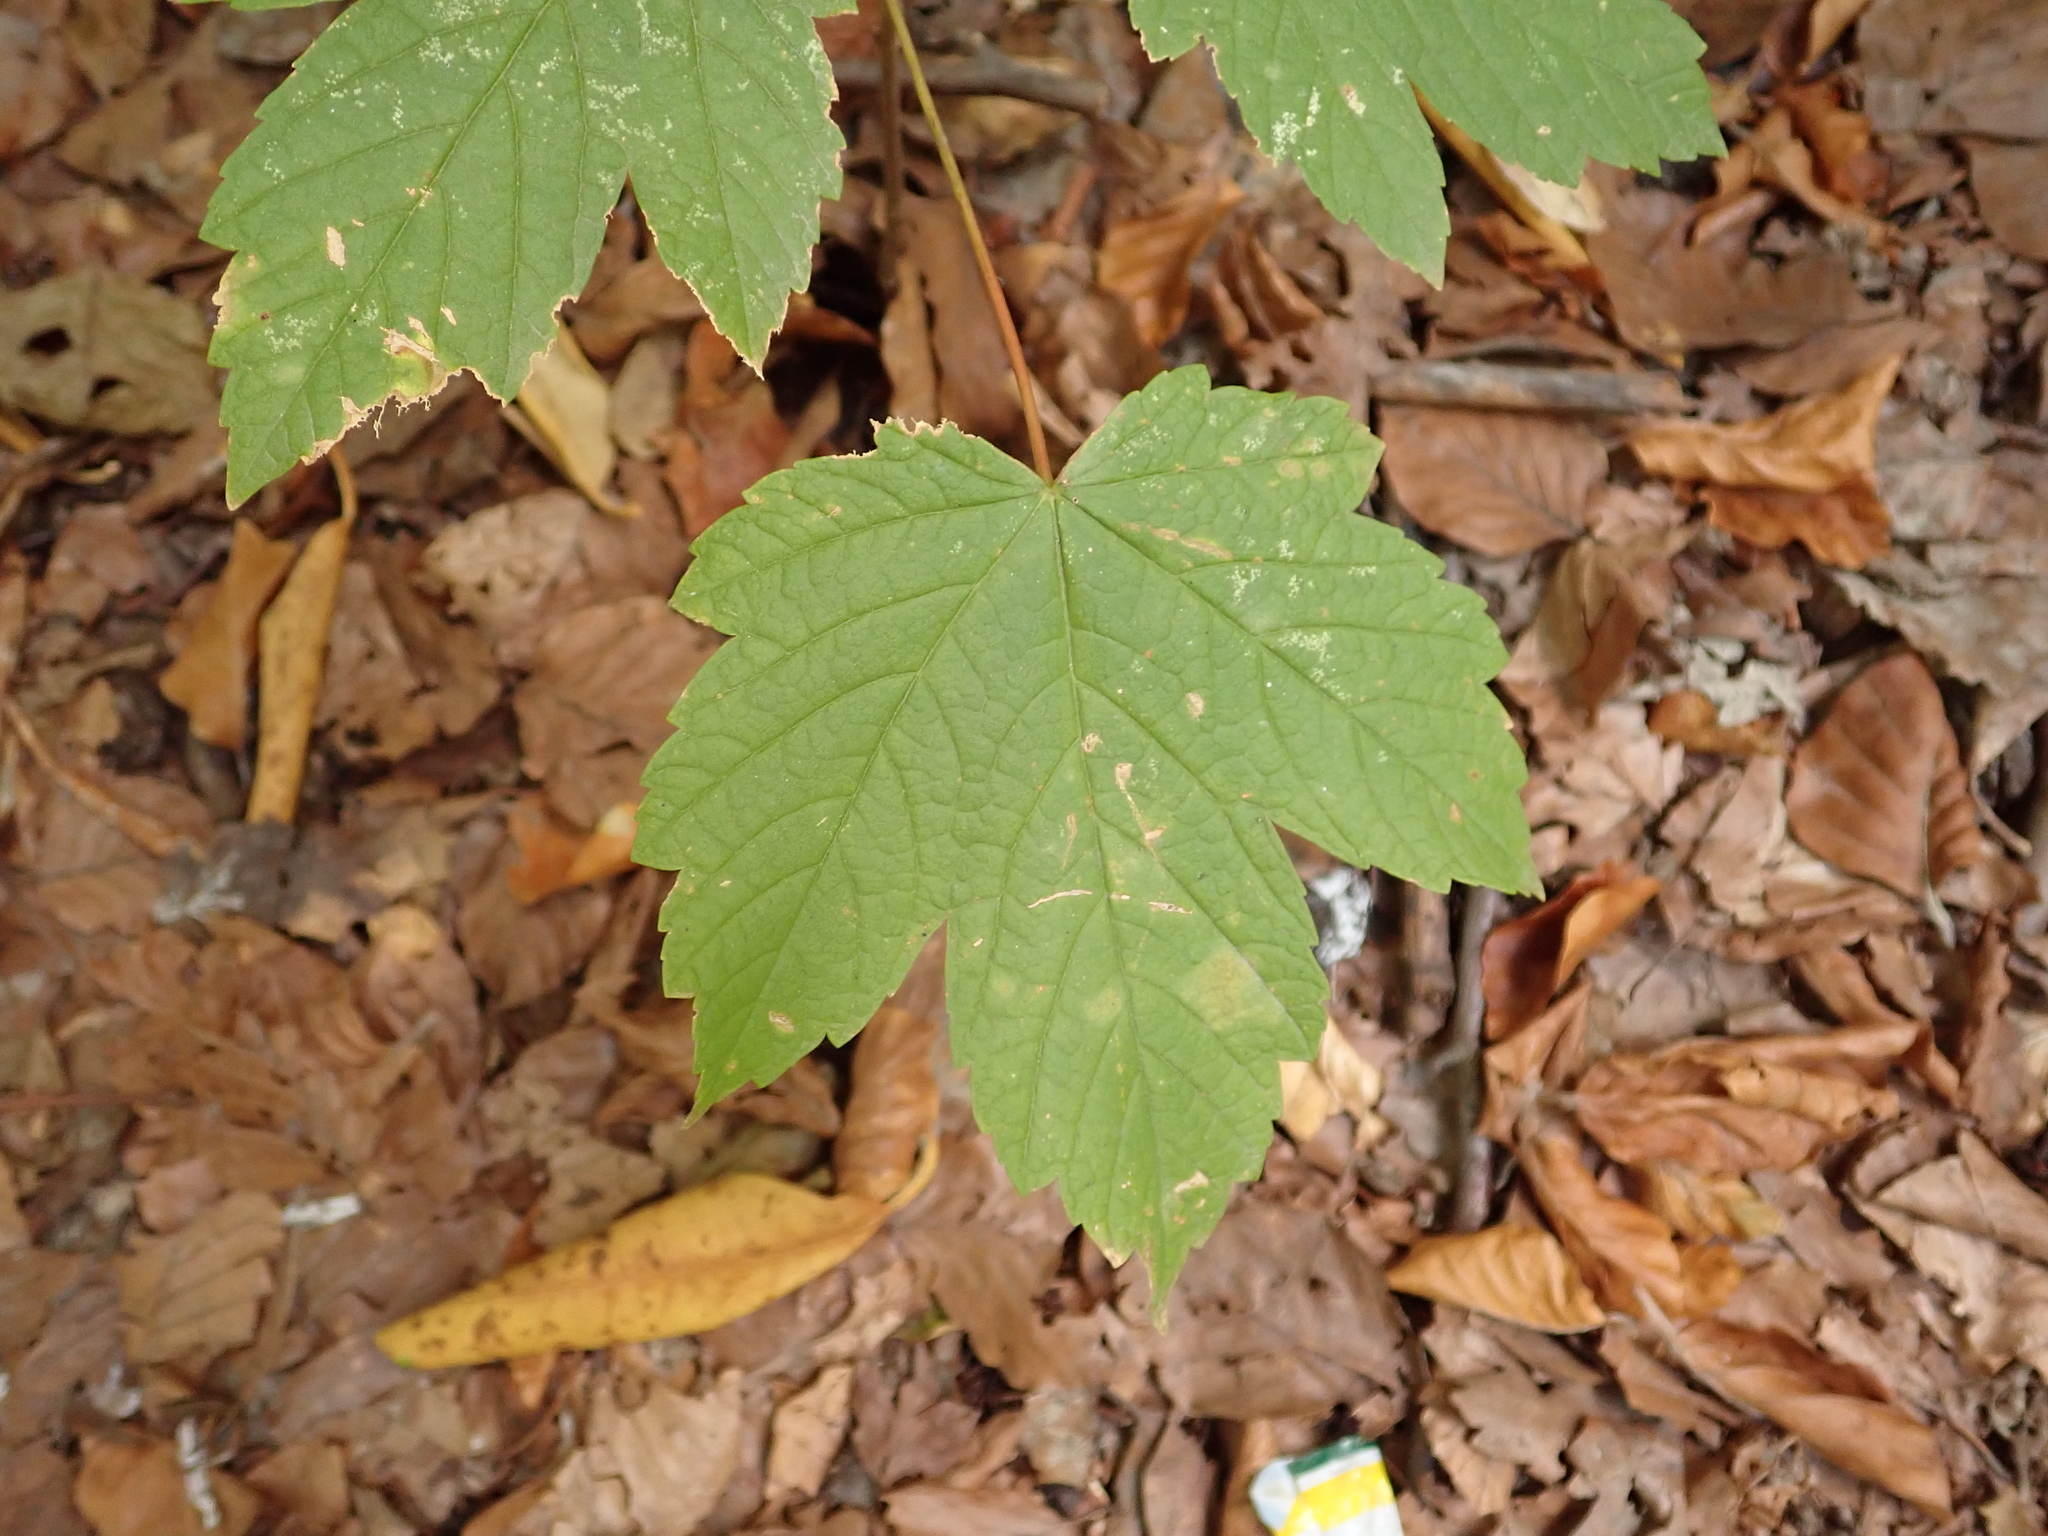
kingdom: Plantae
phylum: Tracheophyta
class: Magnoliopsida
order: Sapindales
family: Sapindaceae
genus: Acer
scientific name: Acer pseudoplatanus
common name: Sycamore
